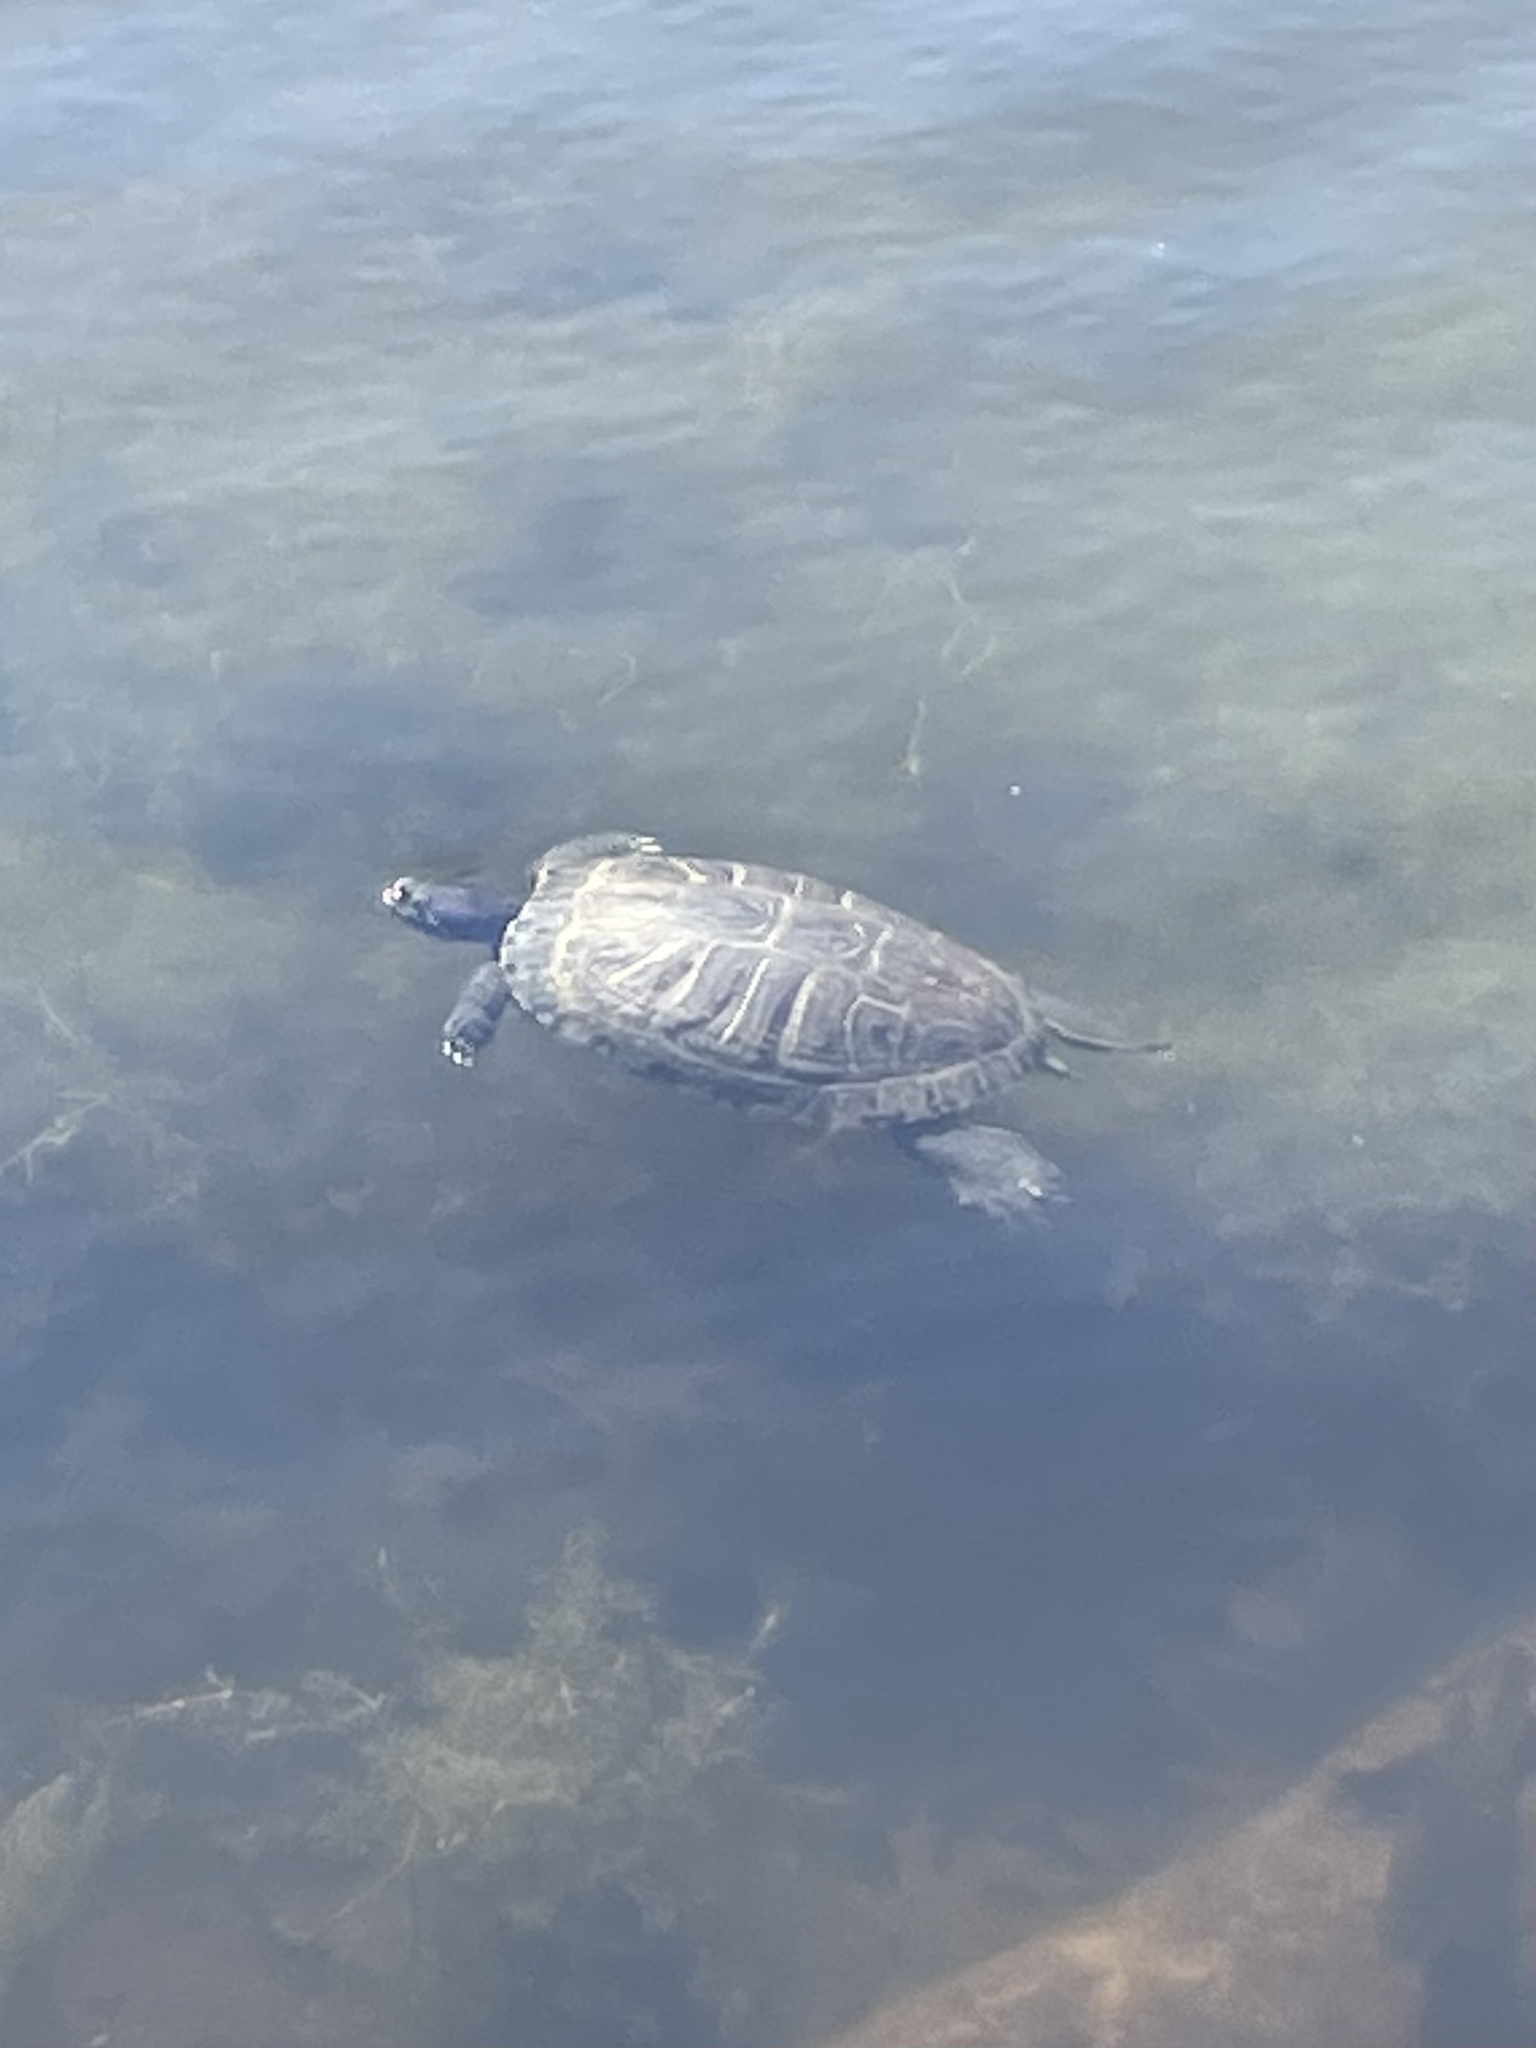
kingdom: Animalia
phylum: Chordata
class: Testudines
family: Emydidae
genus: Trachemys
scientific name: Trachemys scripta
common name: Slider
